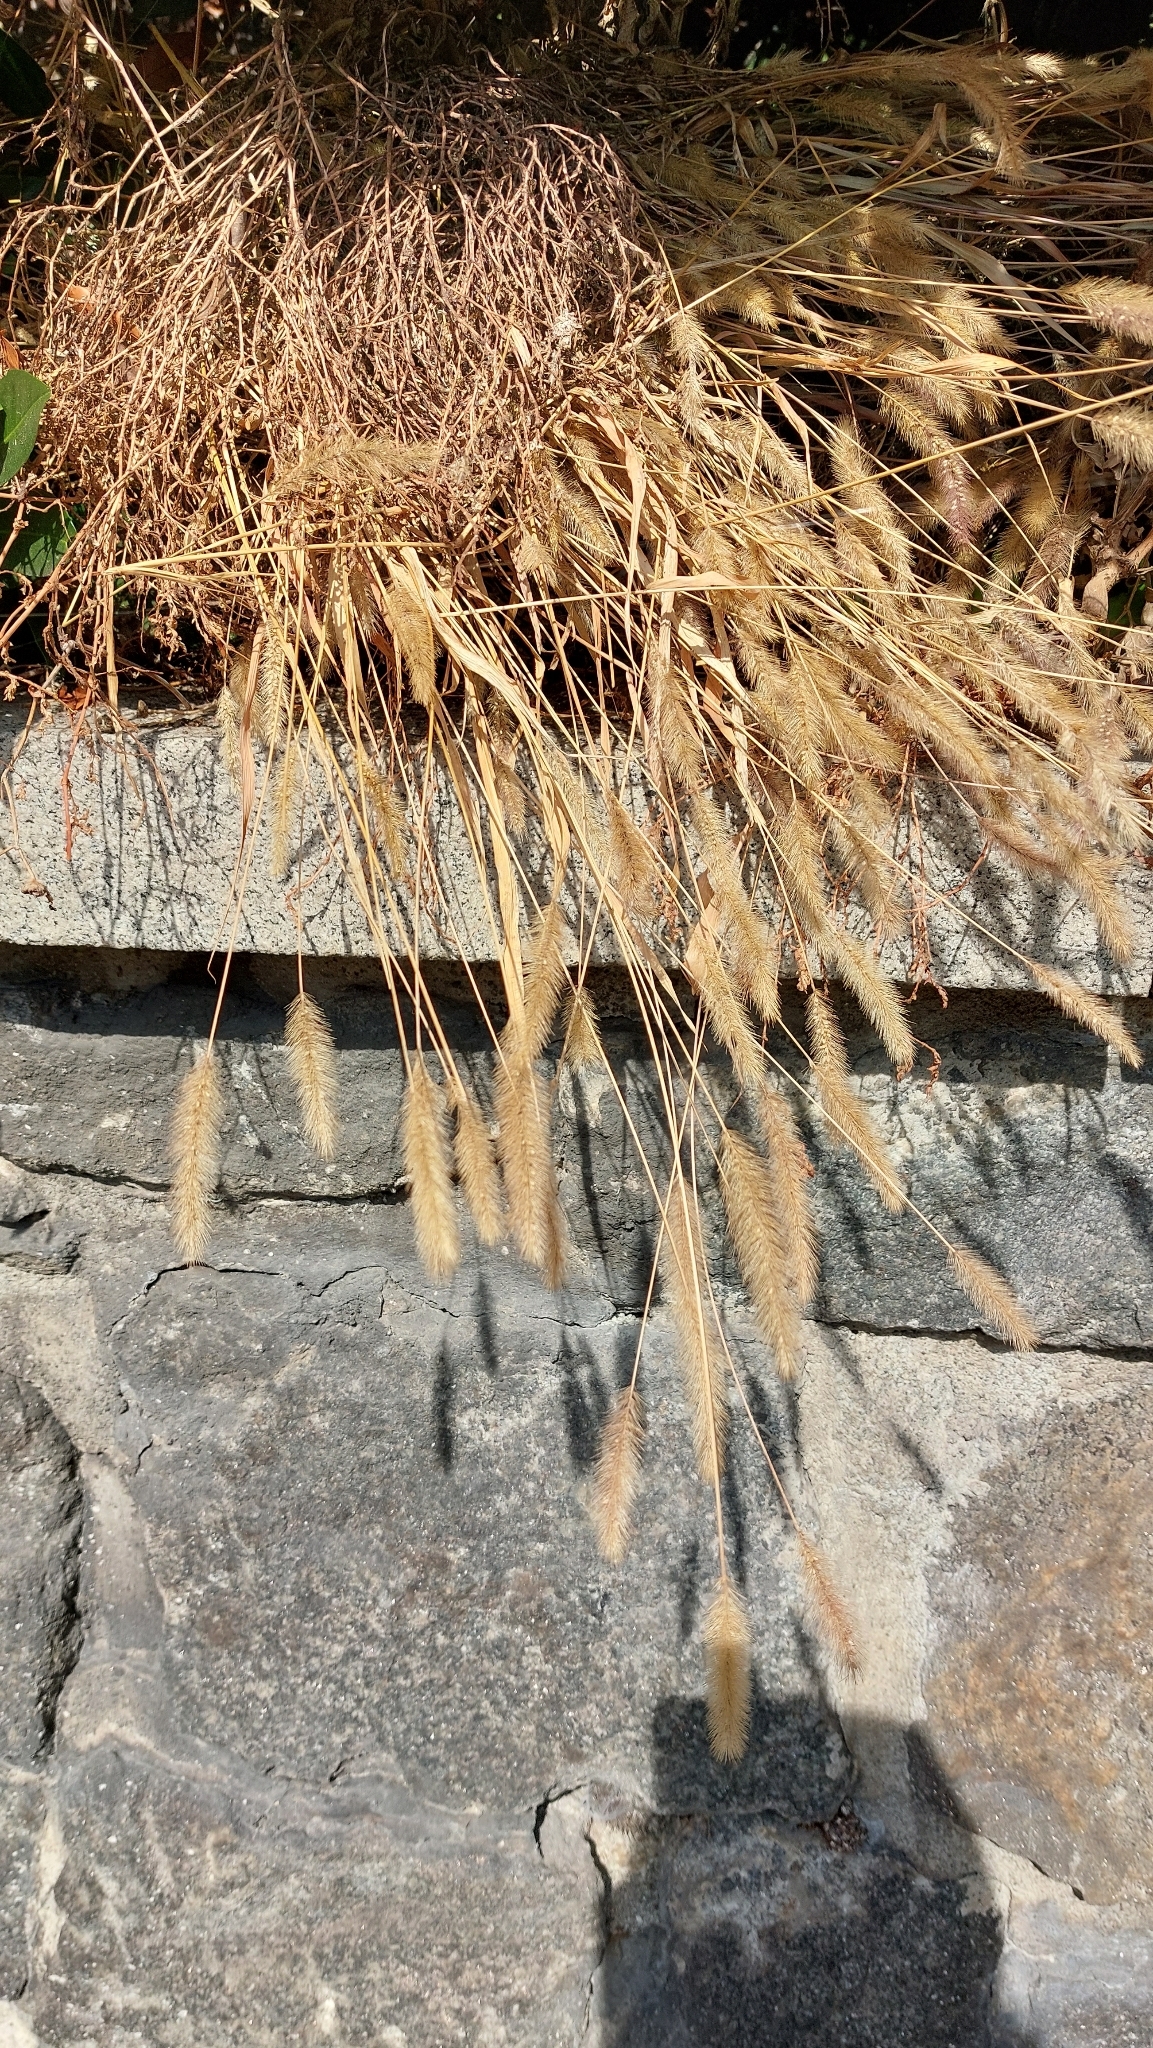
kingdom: Plantae
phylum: Tracheophyta
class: Liliopsida
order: Poales
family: Poaceae
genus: Setaria
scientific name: Setaria viridis
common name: Green bristlegrass
